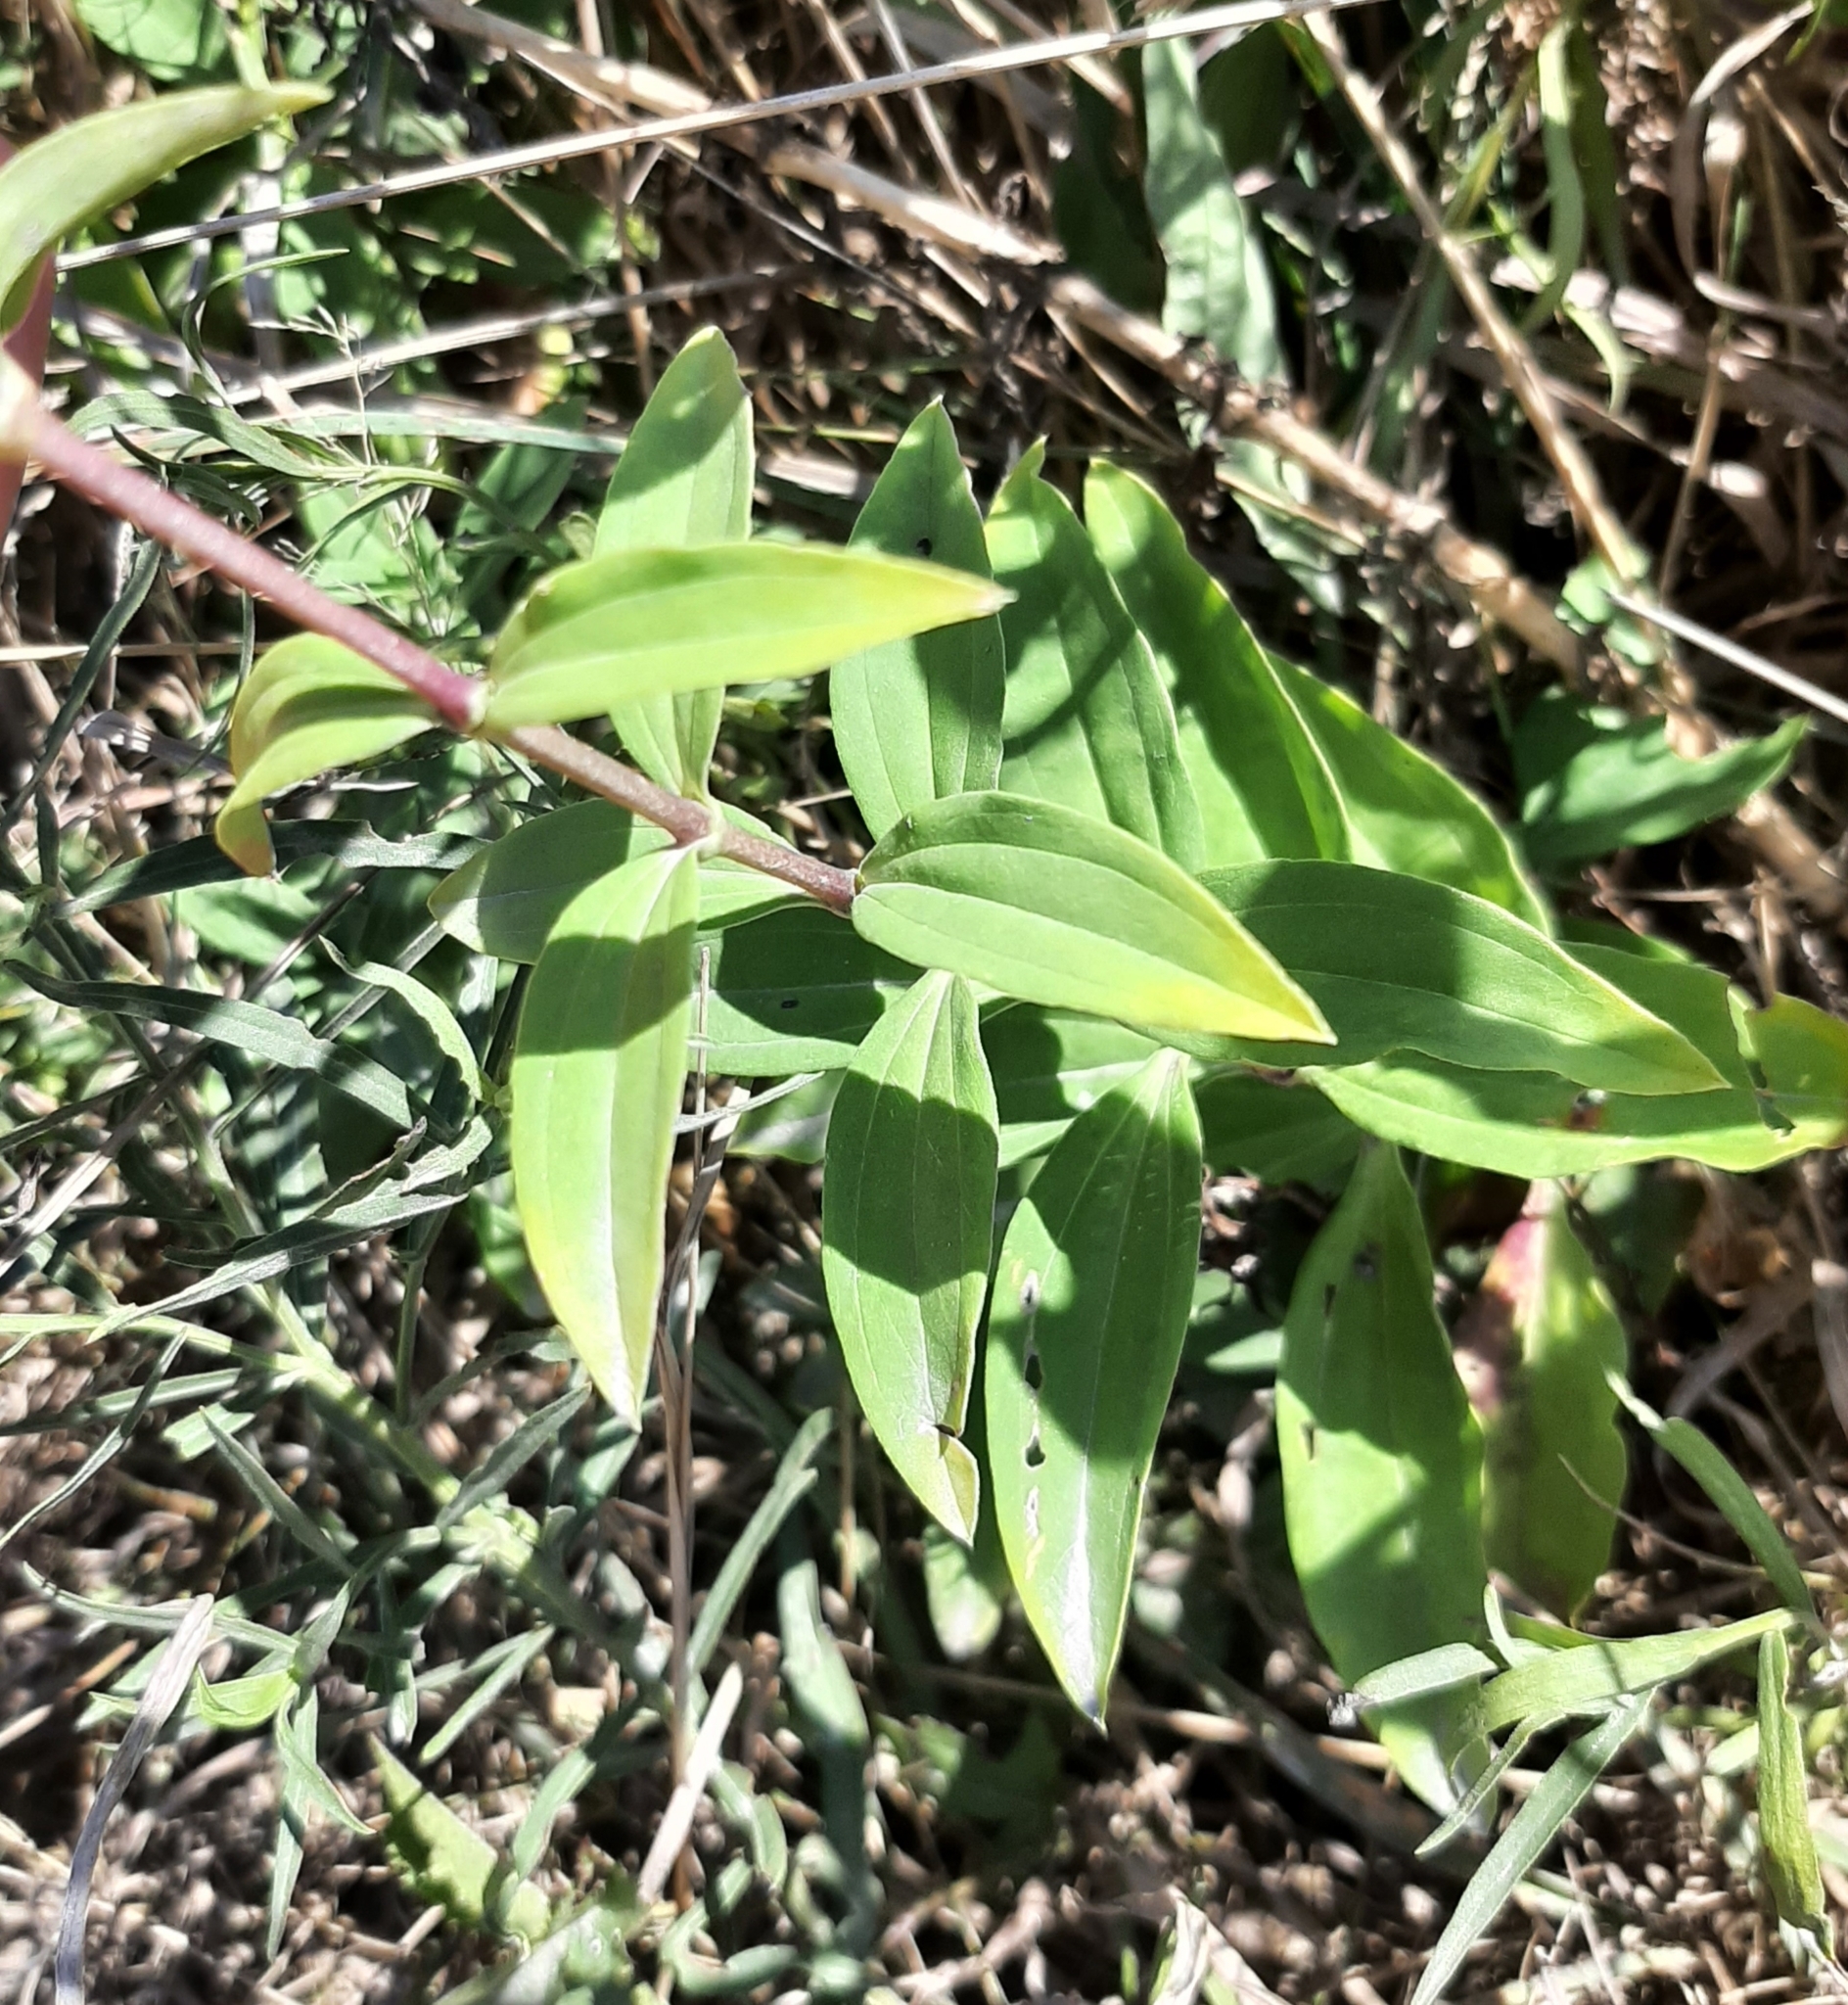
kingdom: Plantae
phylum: Tracheophyta
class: Magnoliopsida
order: Caryophyllales
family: Caryophyllaceae
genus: Saponaria
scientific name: Saponaria officinalis
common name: Soapwort
